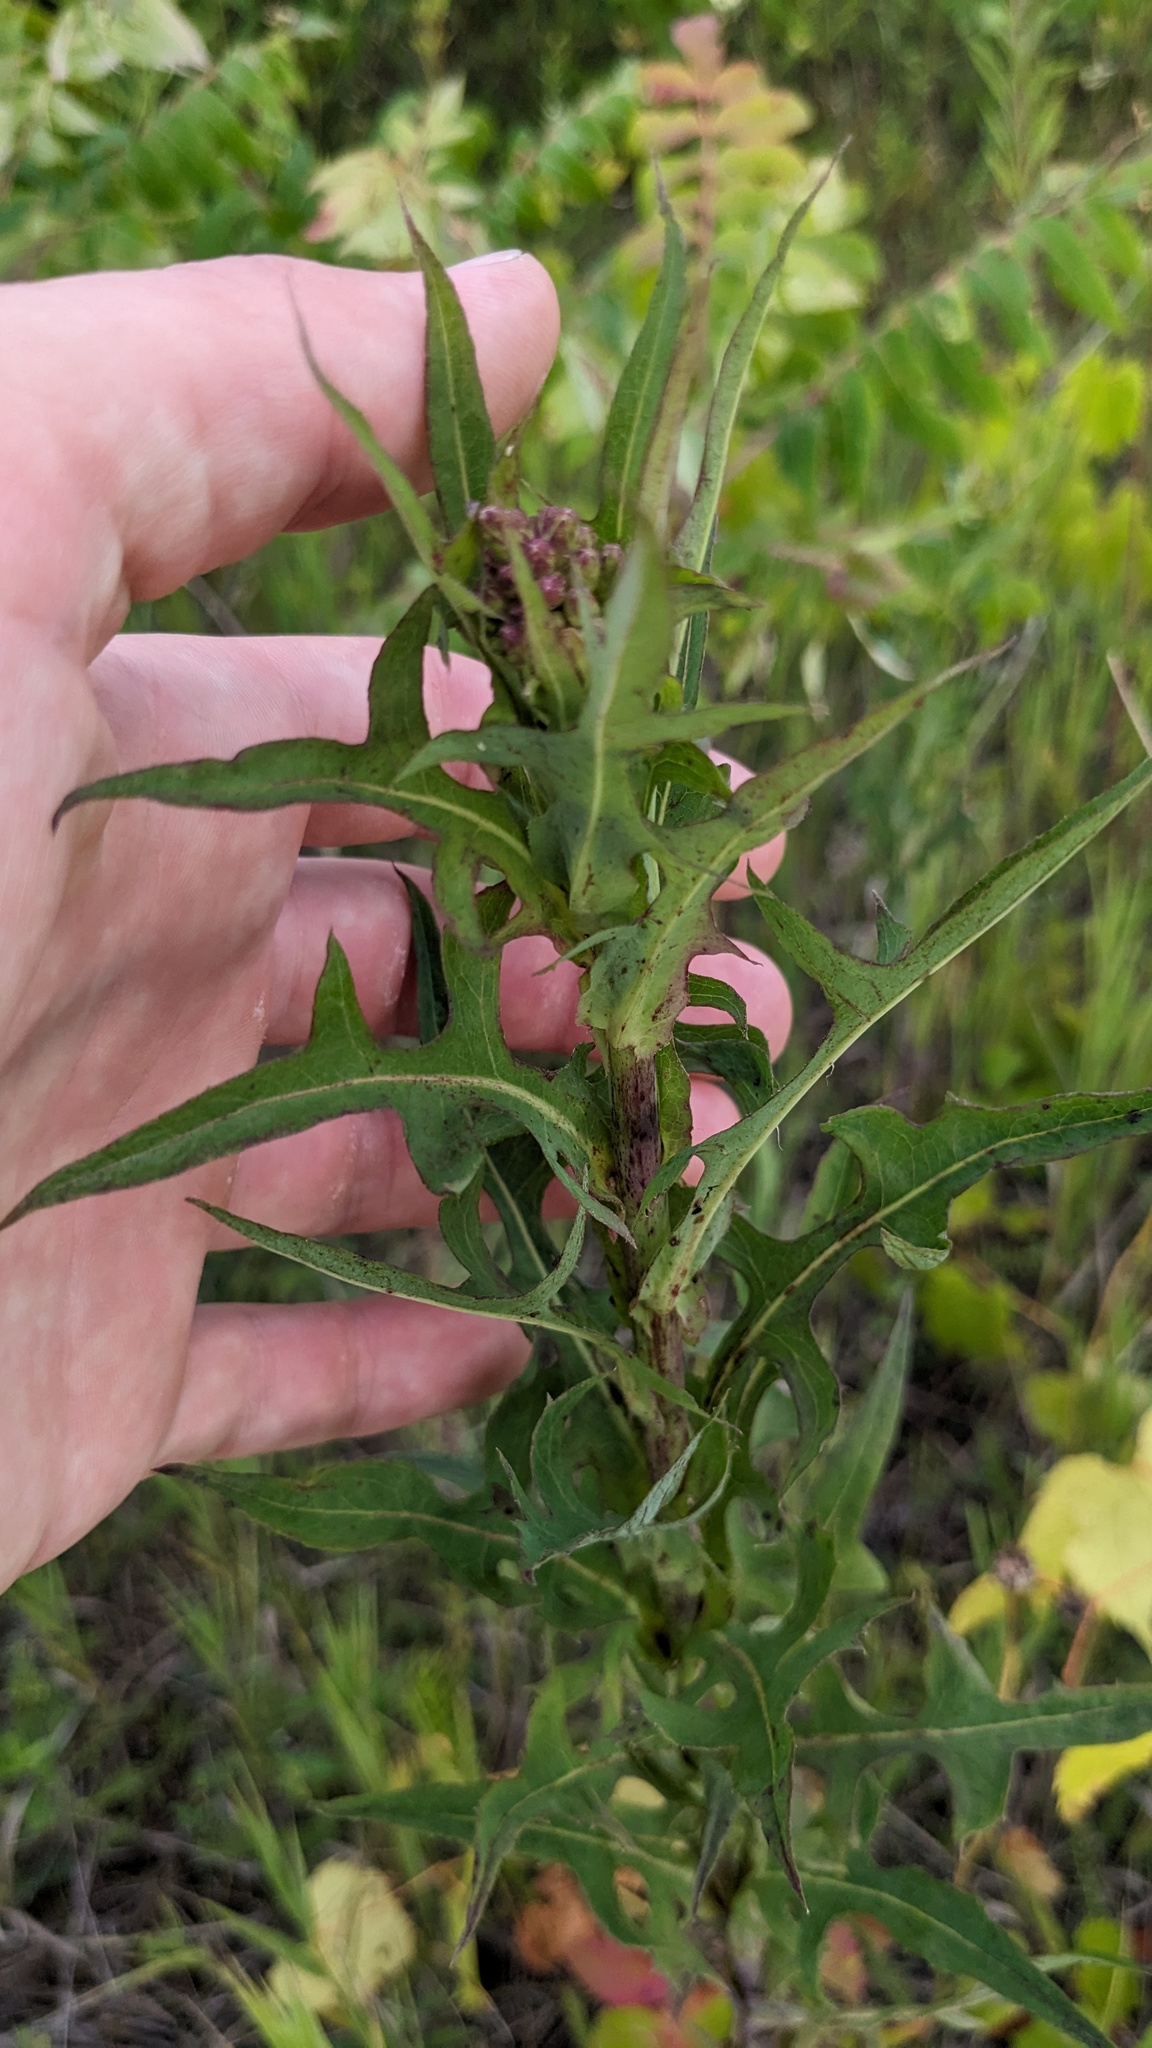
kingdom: Plantae
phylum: Tracheophyta
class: Magnoliopsida
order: Asterales
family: Asteraceae
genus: Lactuca
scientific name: Lactuca canadensis
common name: Canada lettuce
